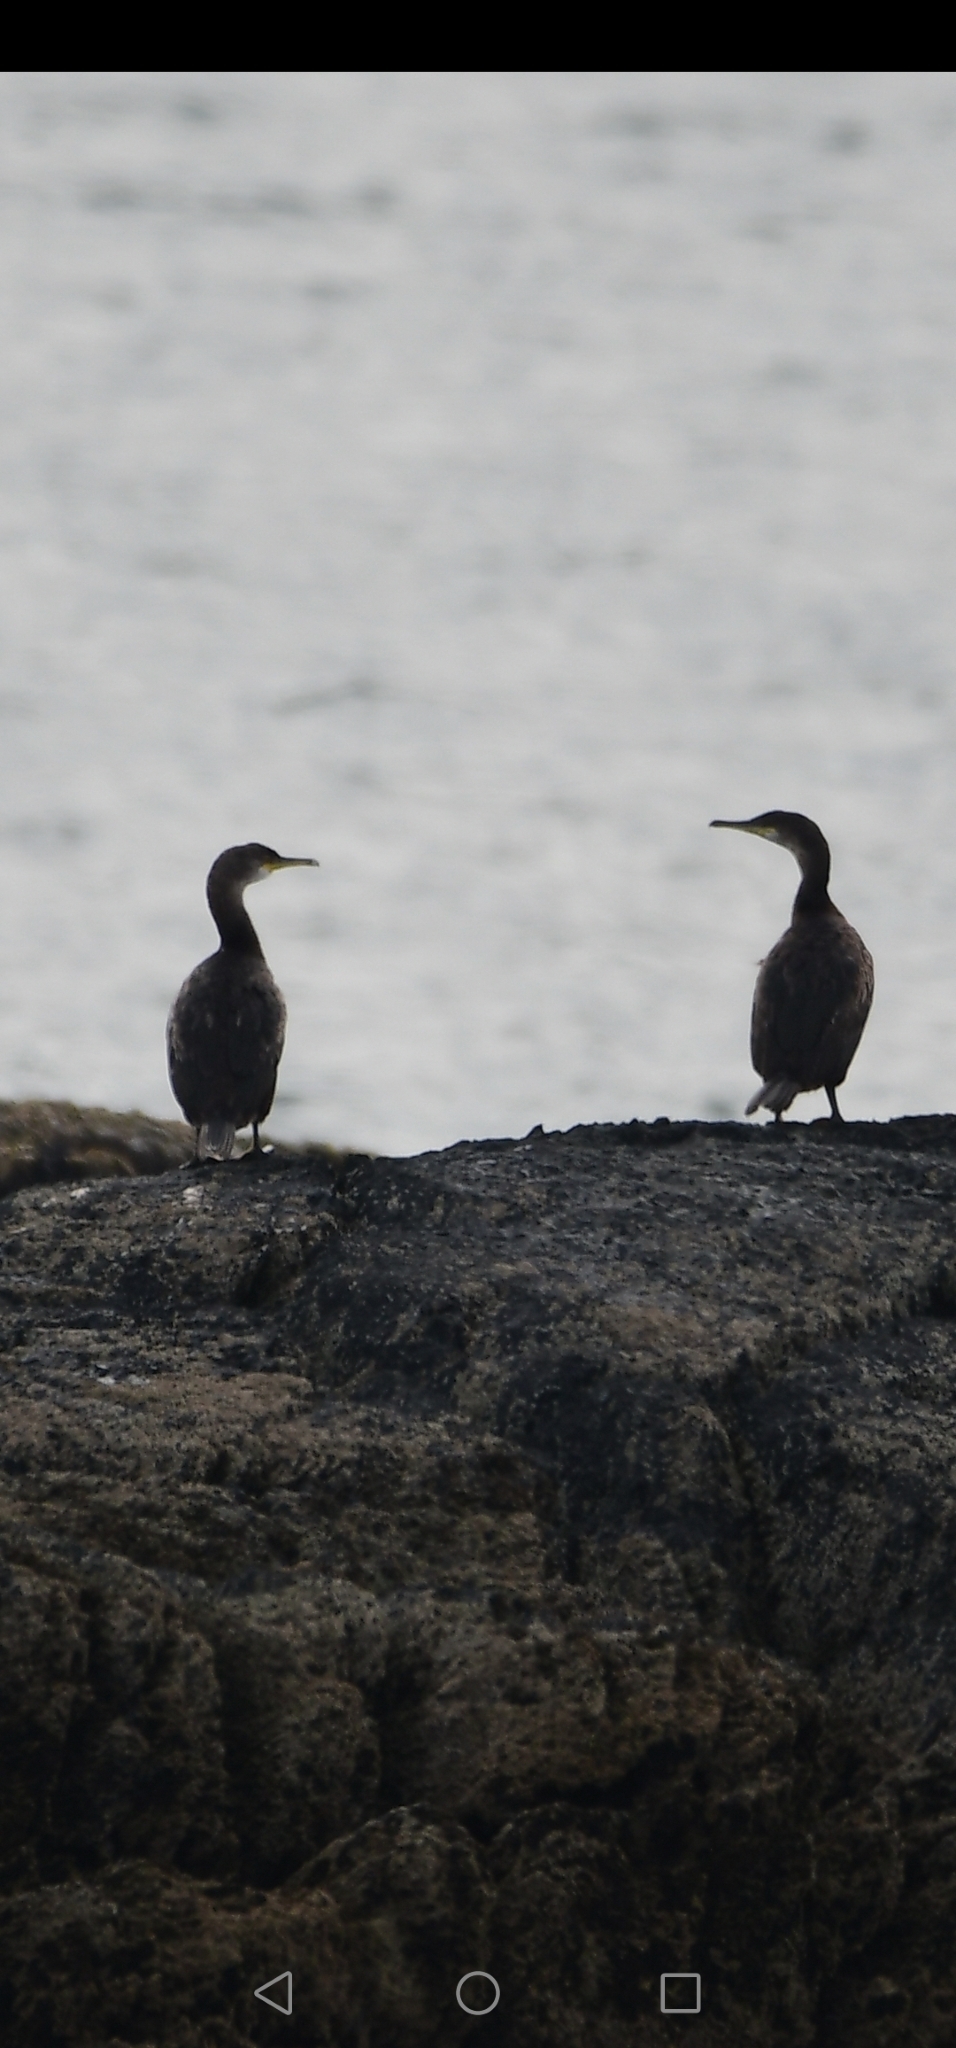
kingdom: Animalia
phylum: Chordata
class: Aves
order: Suliformes
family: Phalacrocoracidae
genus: Phalacrocorax
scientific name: Phalacrocorax aristotelis
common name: European shag
